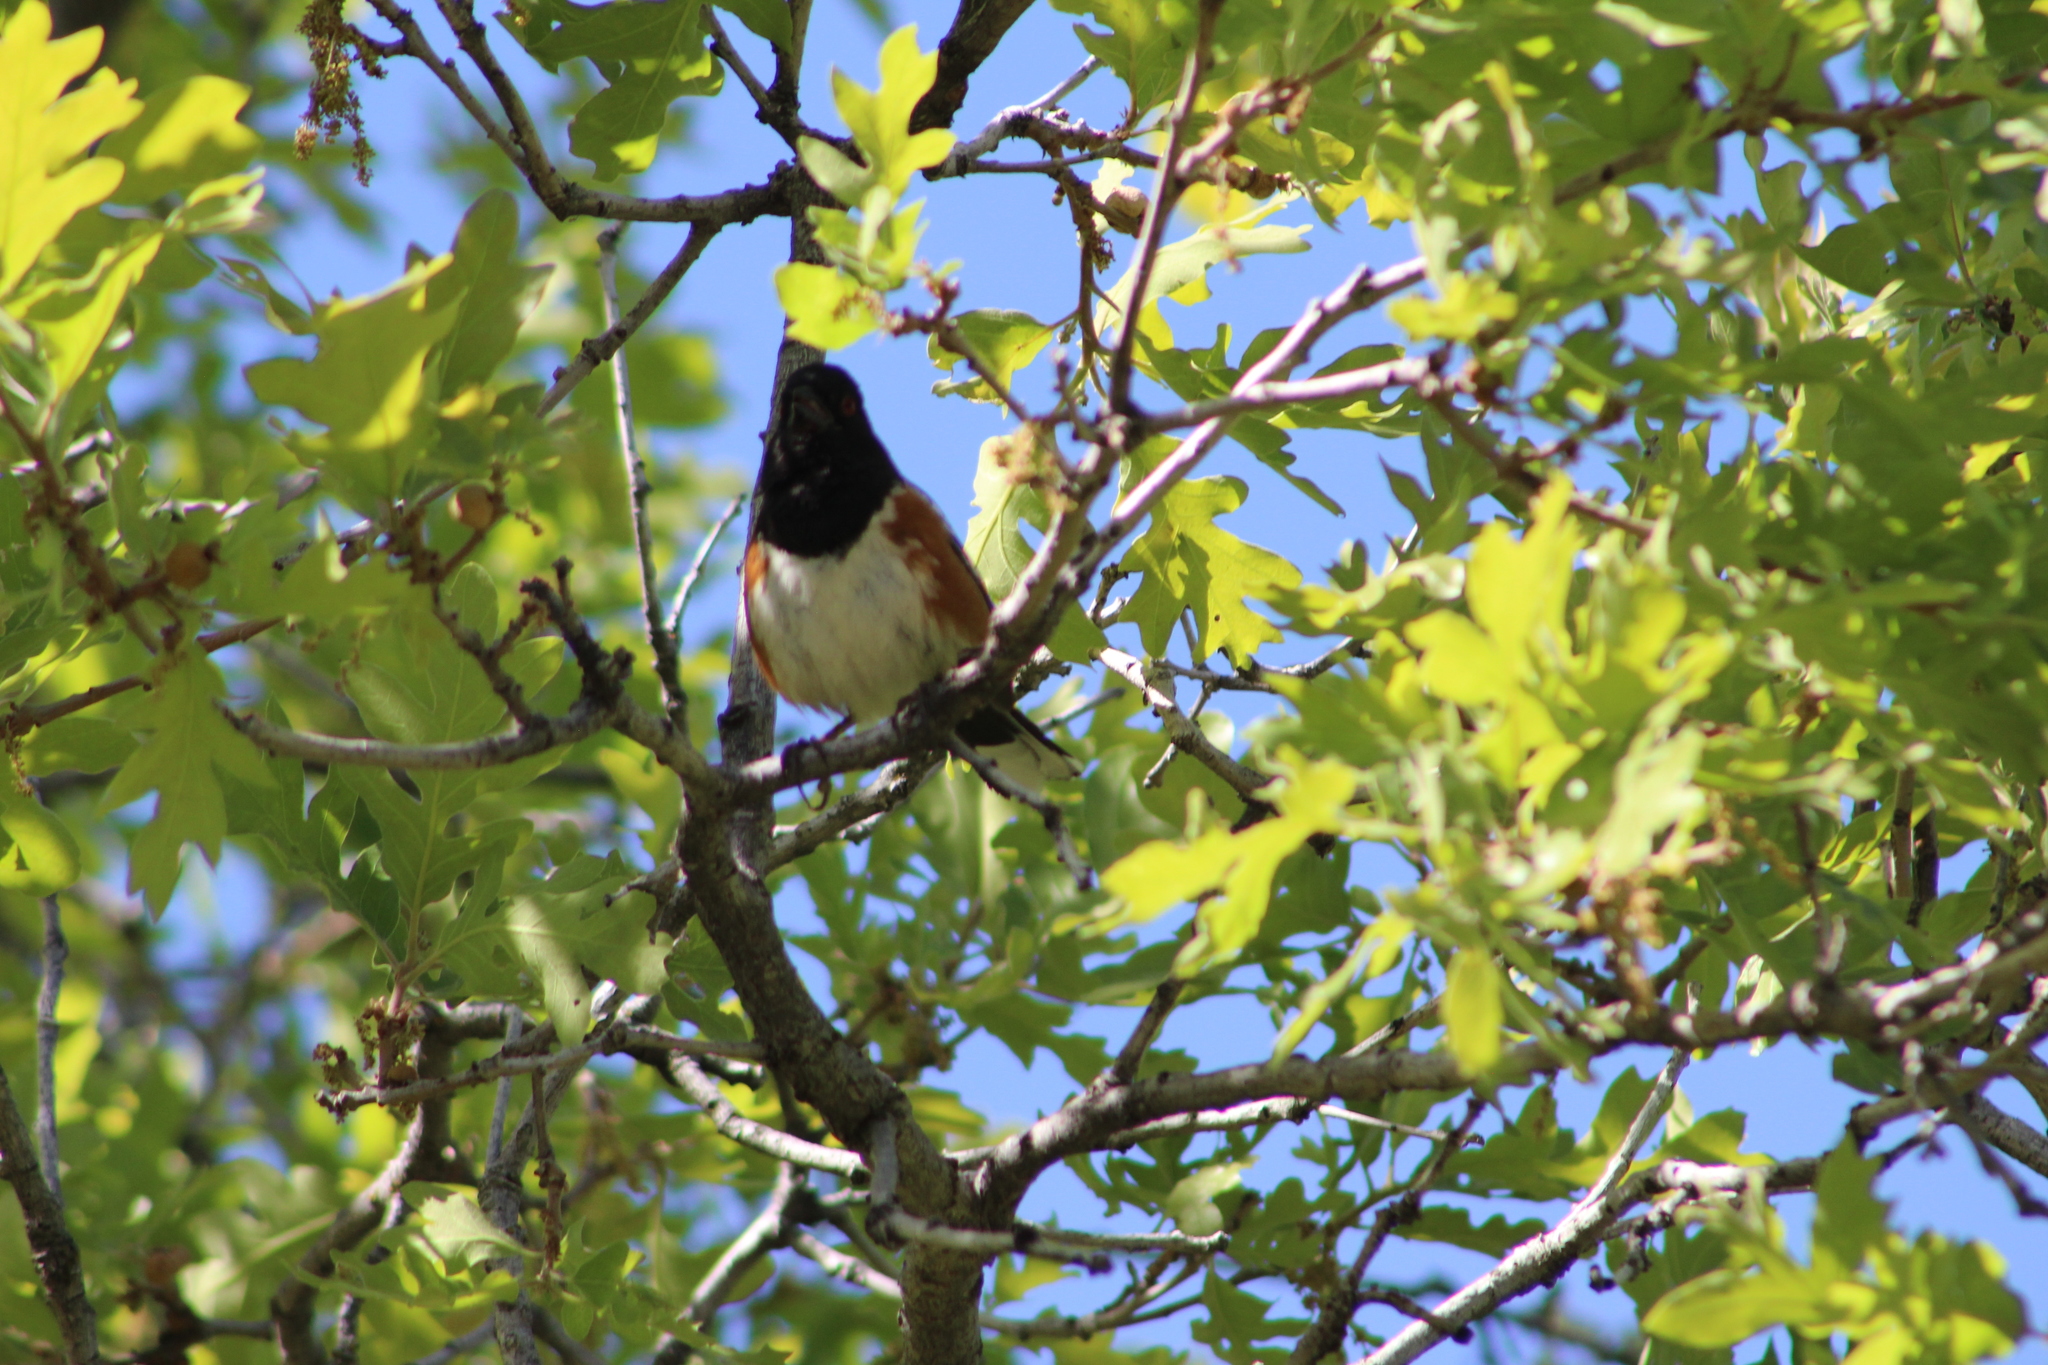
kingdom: Animalia
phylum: Chordata
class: Aves
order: Passeriformes
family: Passerellidae
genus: Pipilo
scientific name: Pipilo maculatus
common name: Spotted towhee
